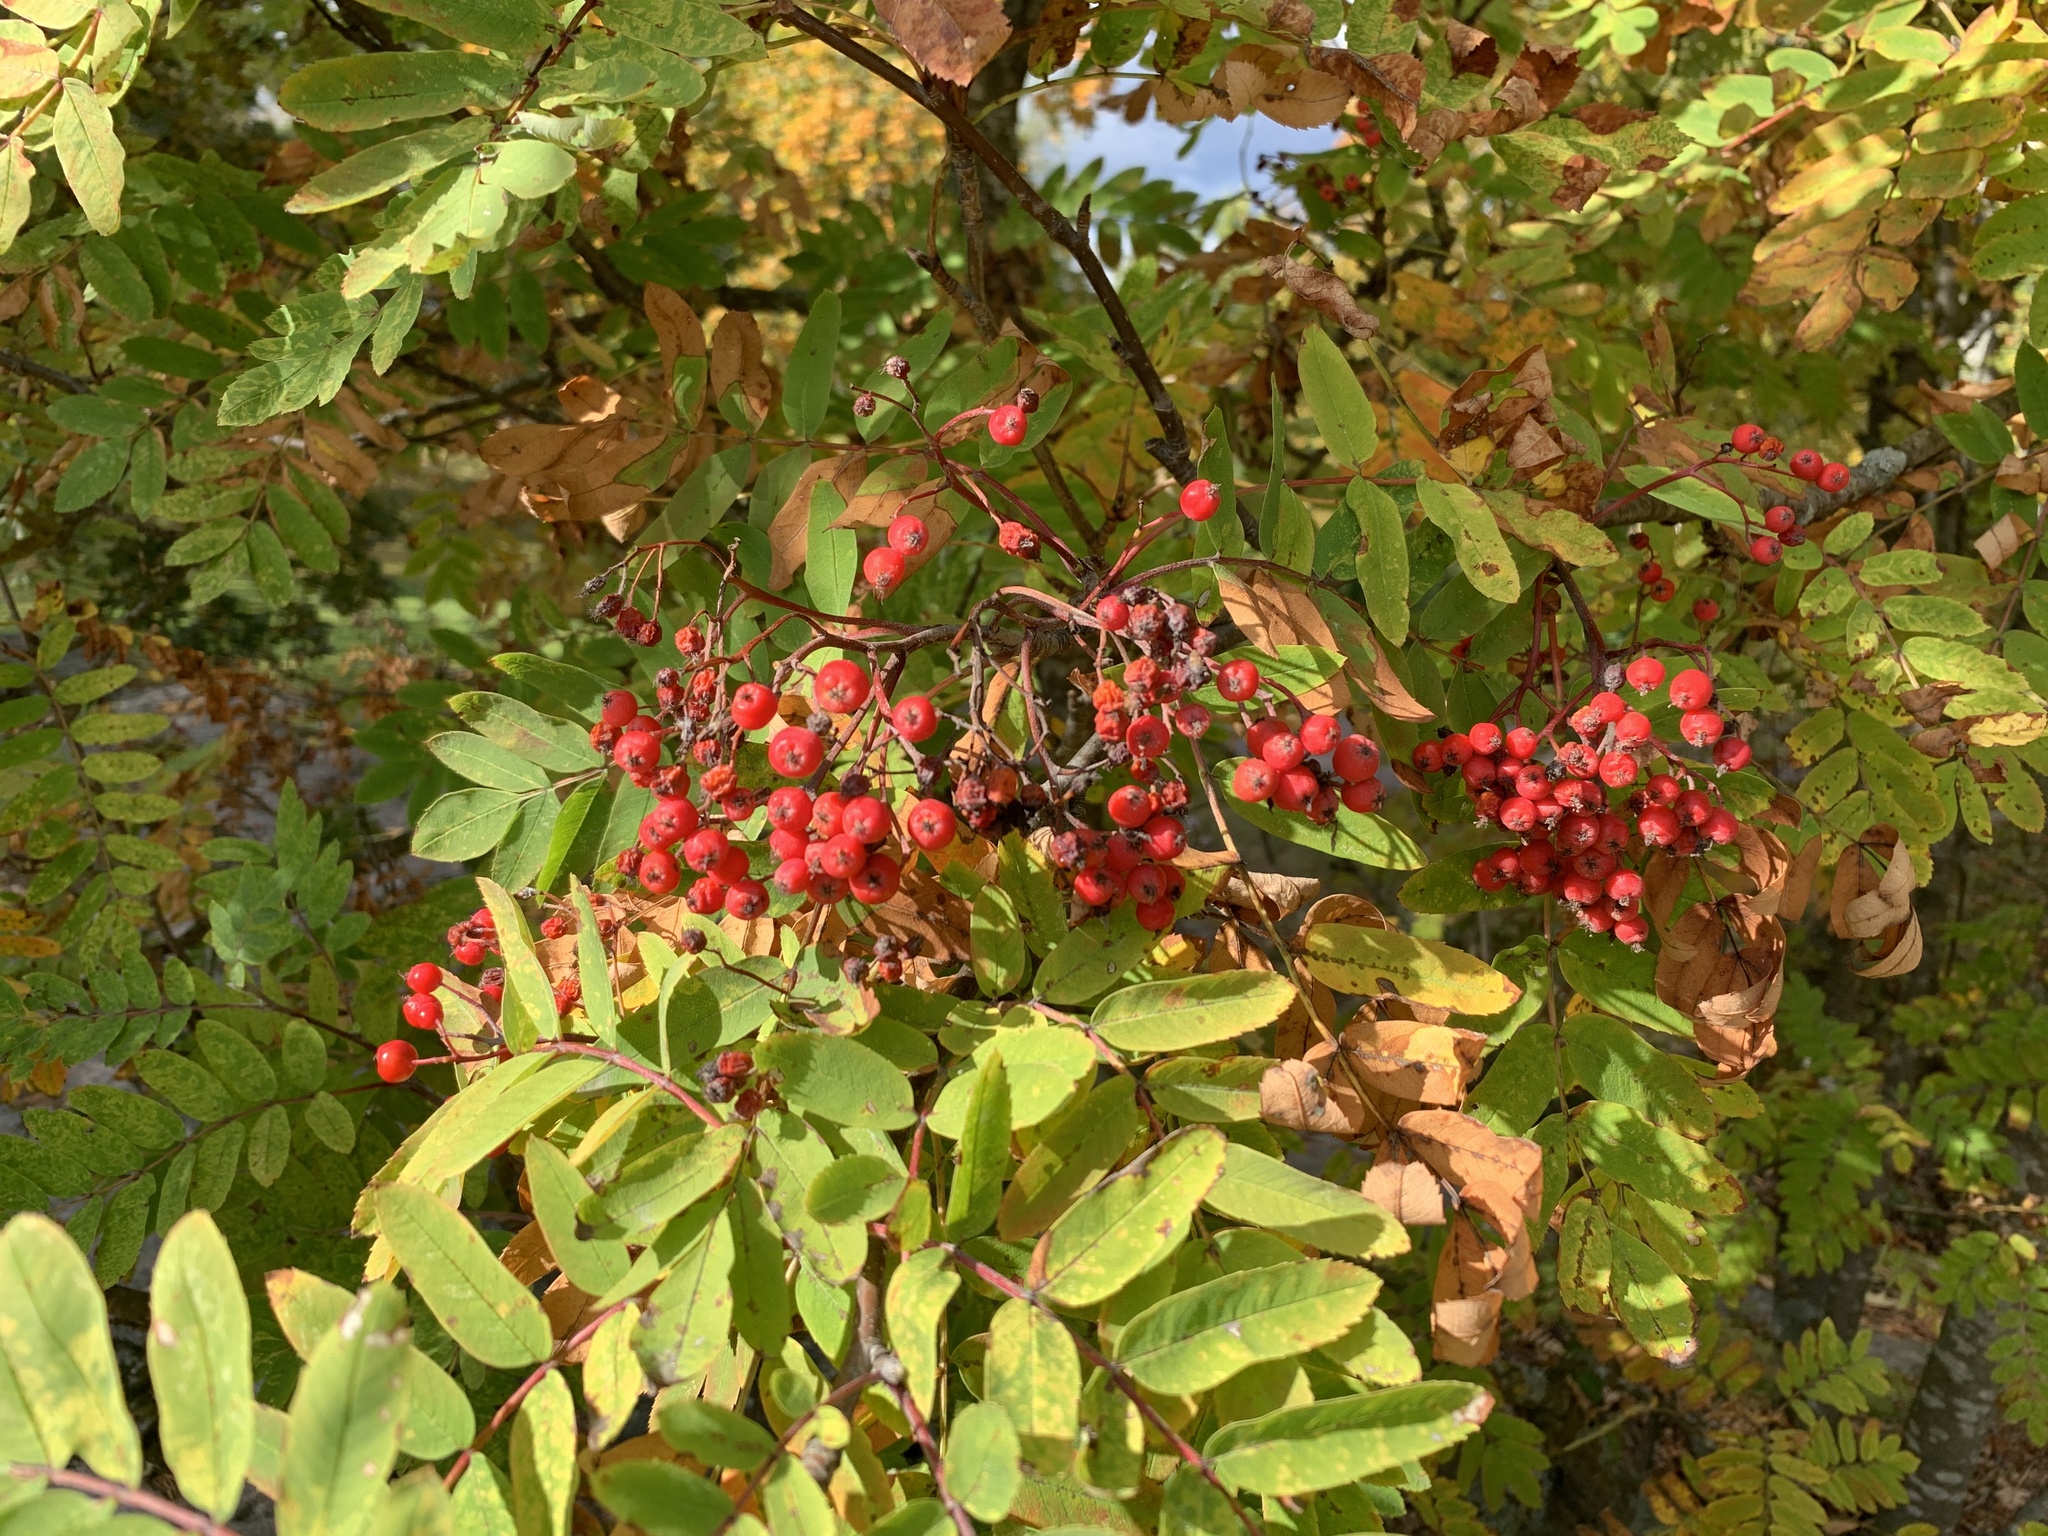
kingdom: Plantae
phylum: Tracheophyta
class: Magnoliopsida
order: Rosales
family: Rosaceae
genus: Sorbus
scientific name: Sorbus aucuparia
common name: Rowan
